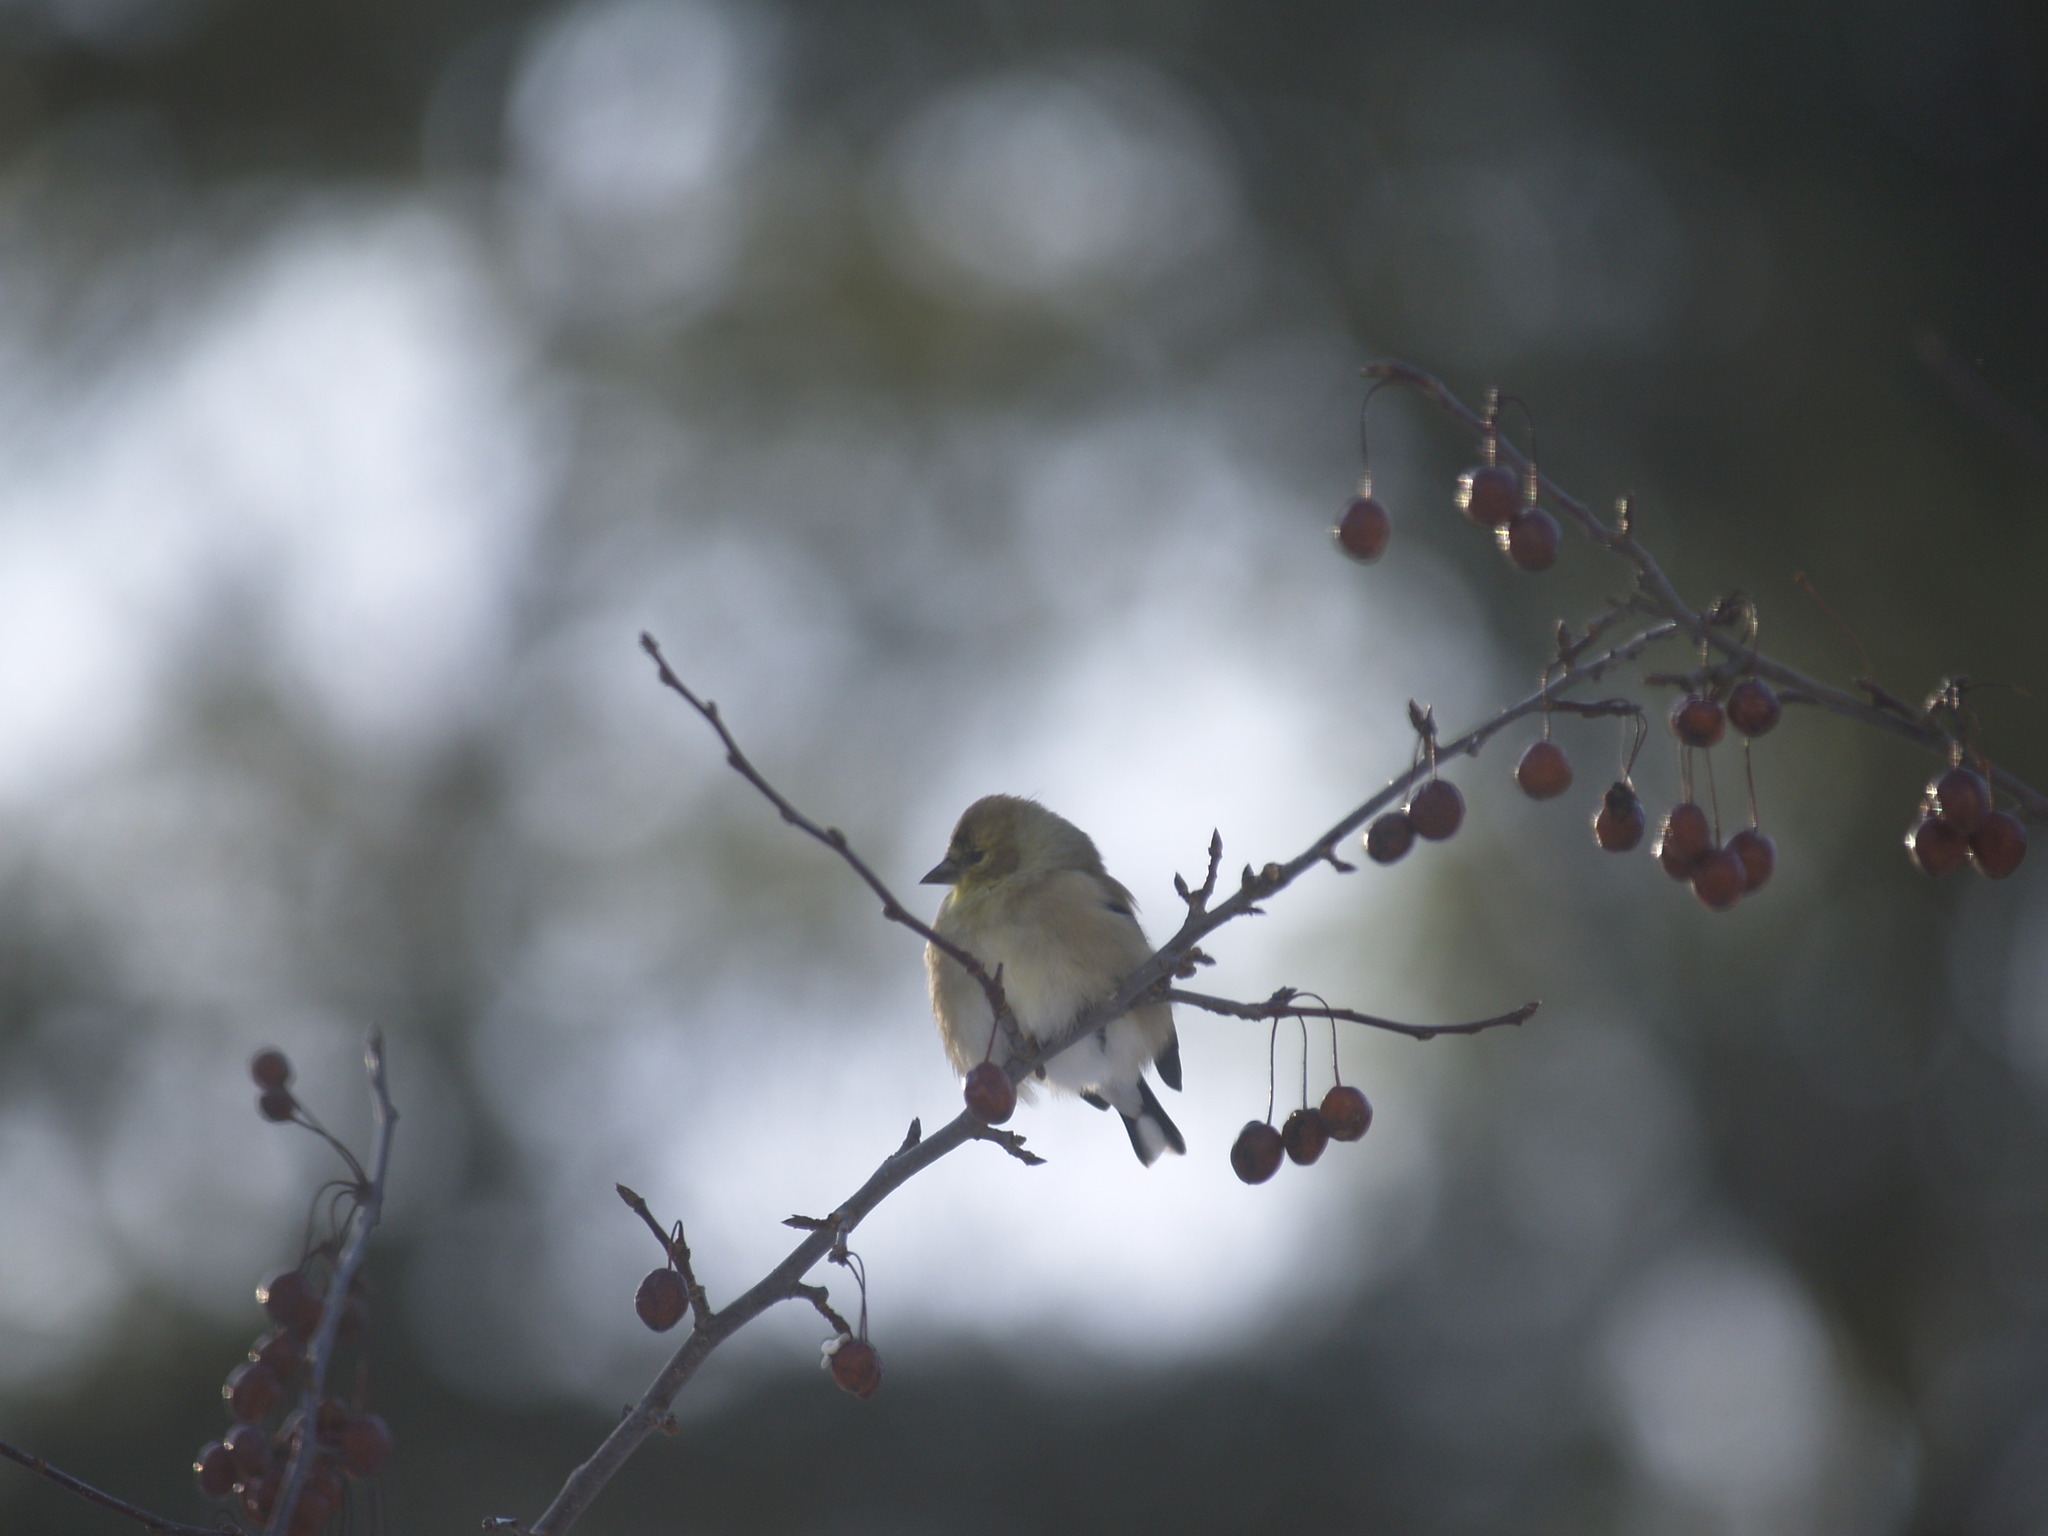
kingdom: Animalia
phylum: Chordata
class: Aves
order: Passeriformes
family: Fringillidae
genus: Spinus
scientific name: Spinus tristis
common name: American goldfinch
